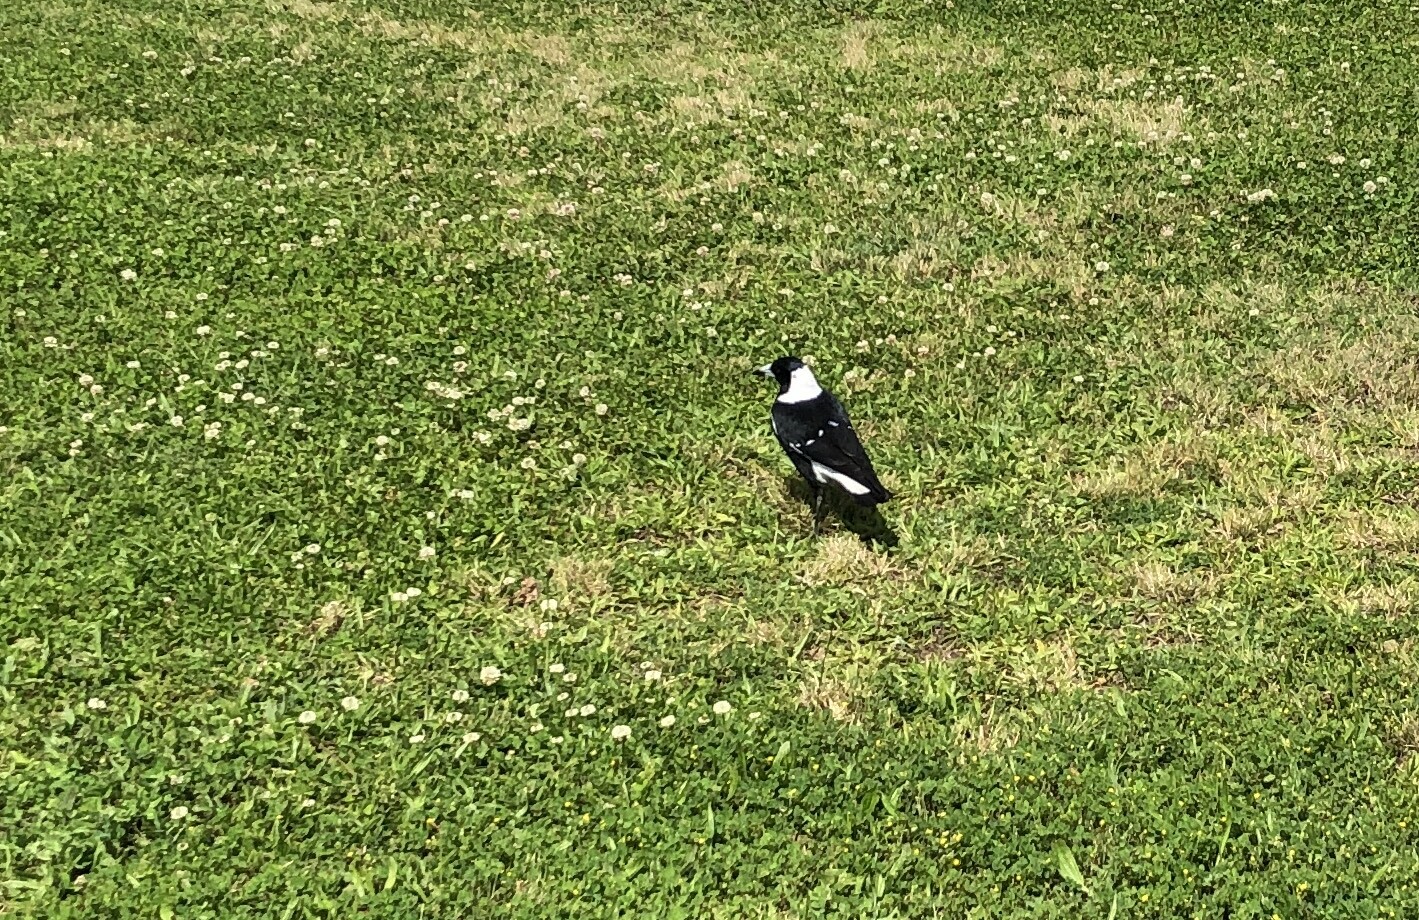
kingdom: Animalia
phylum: Chordata
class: Aves
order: Passeriformes
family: Cracticidae
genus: Gymnorhina
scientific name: Gymnorhina tibicen
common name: Australian magpie
